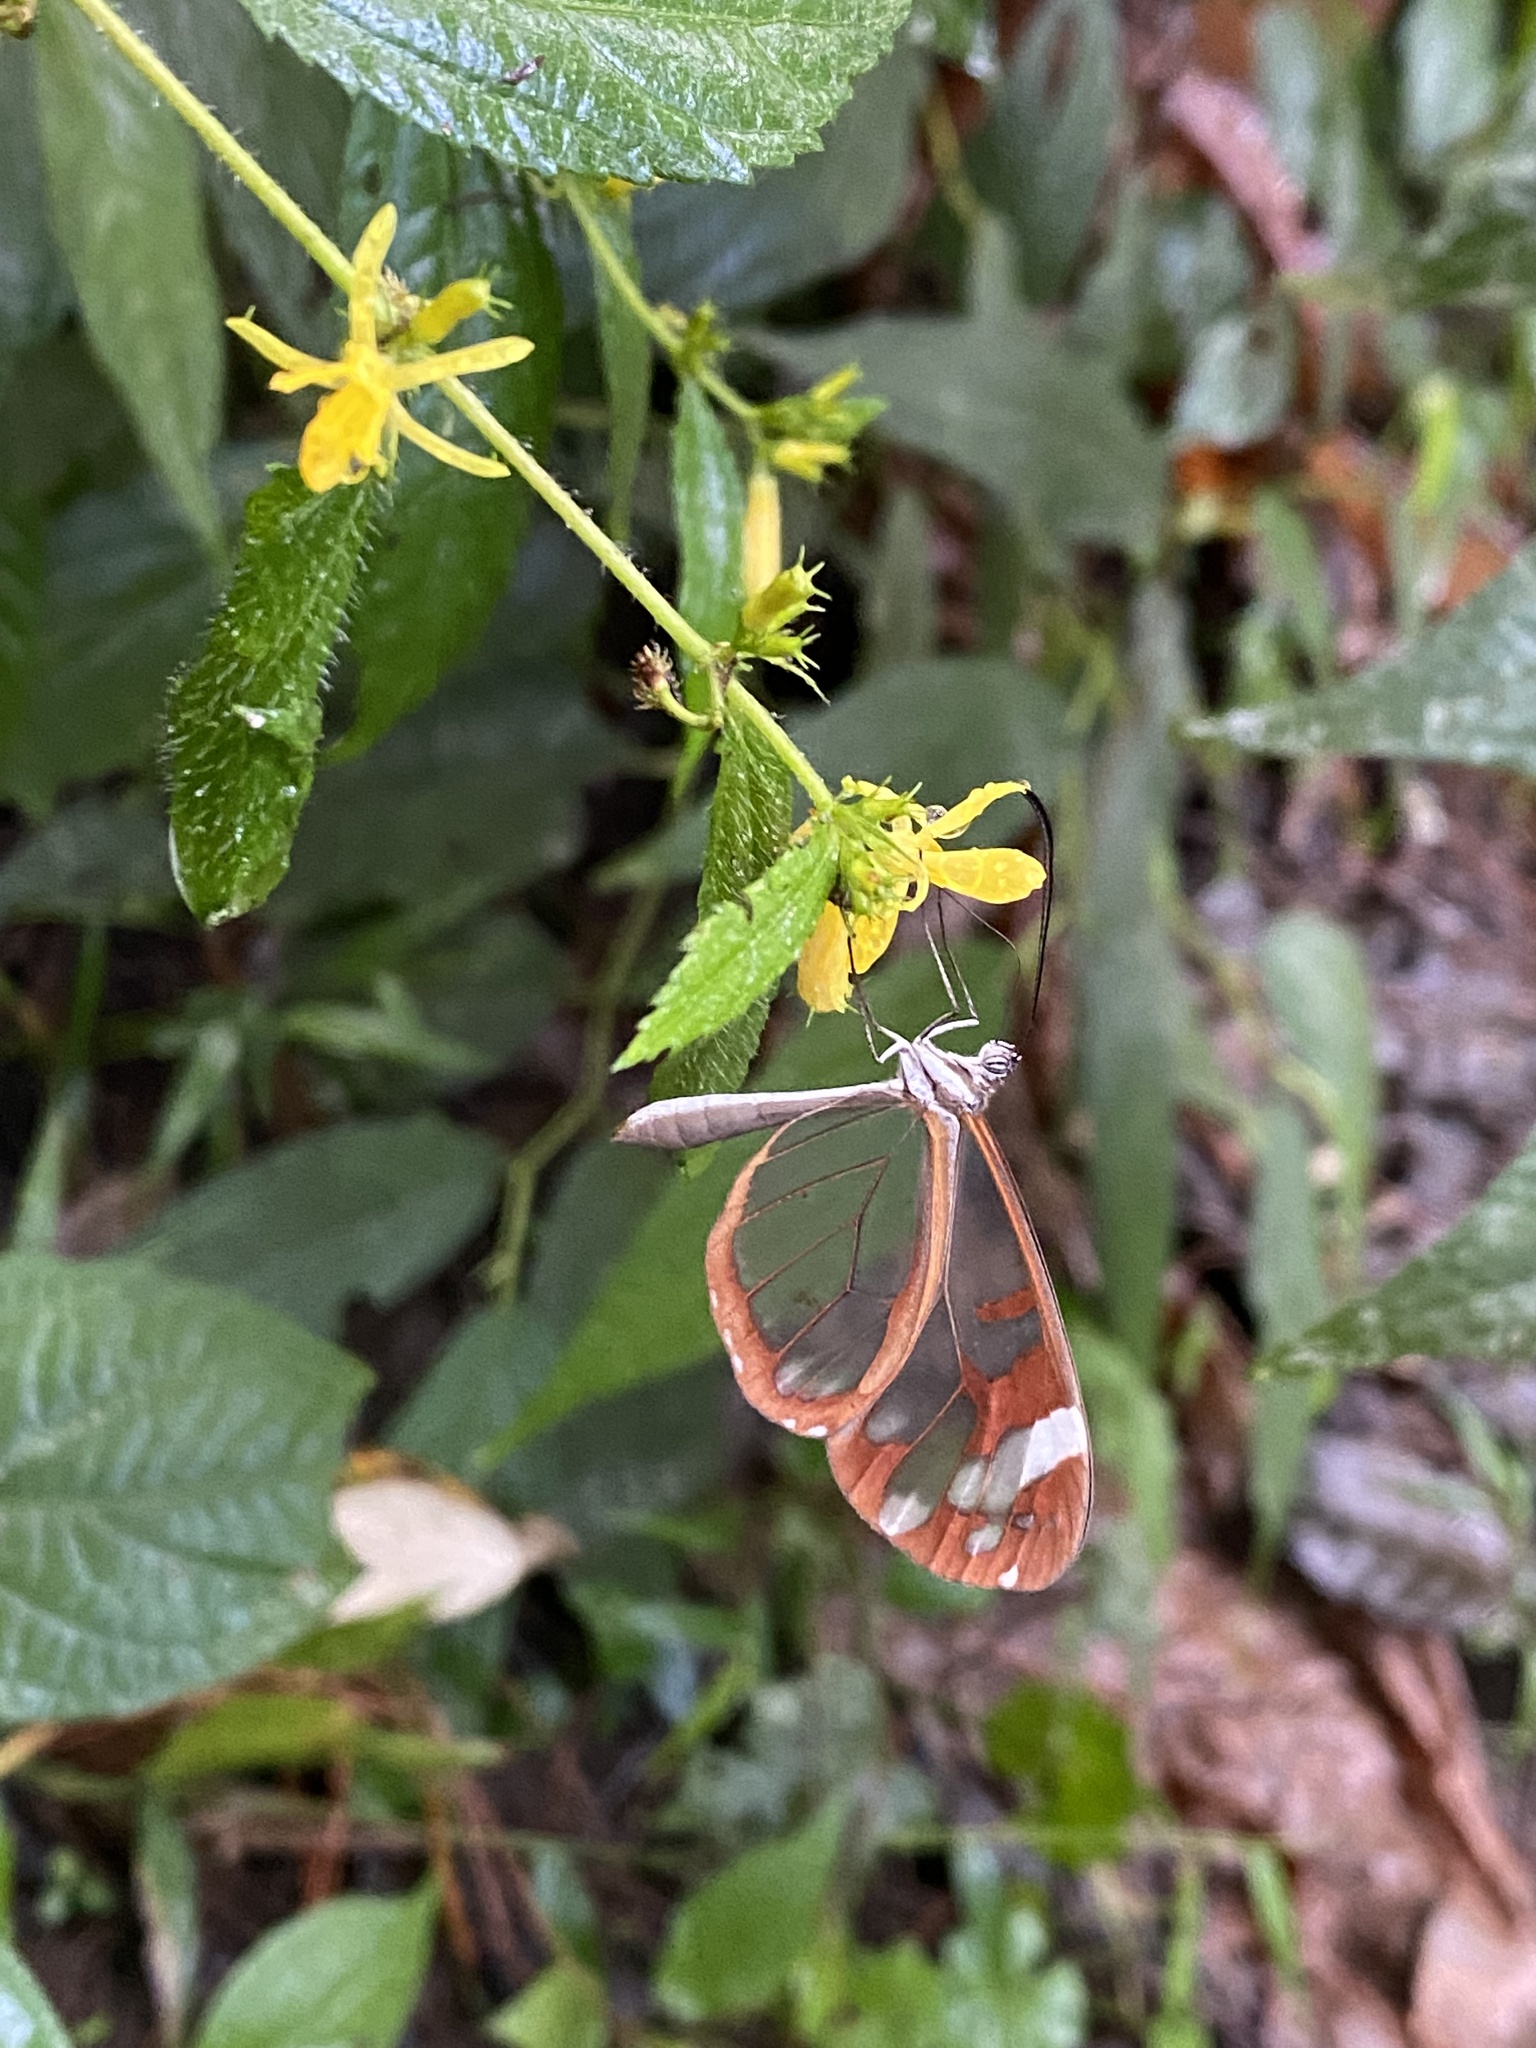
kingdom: Animalia
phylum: Arthropoda
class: Insecta
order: Lepidoptera
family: Nymphalidae
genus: Oleria
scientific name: Oleria zea
